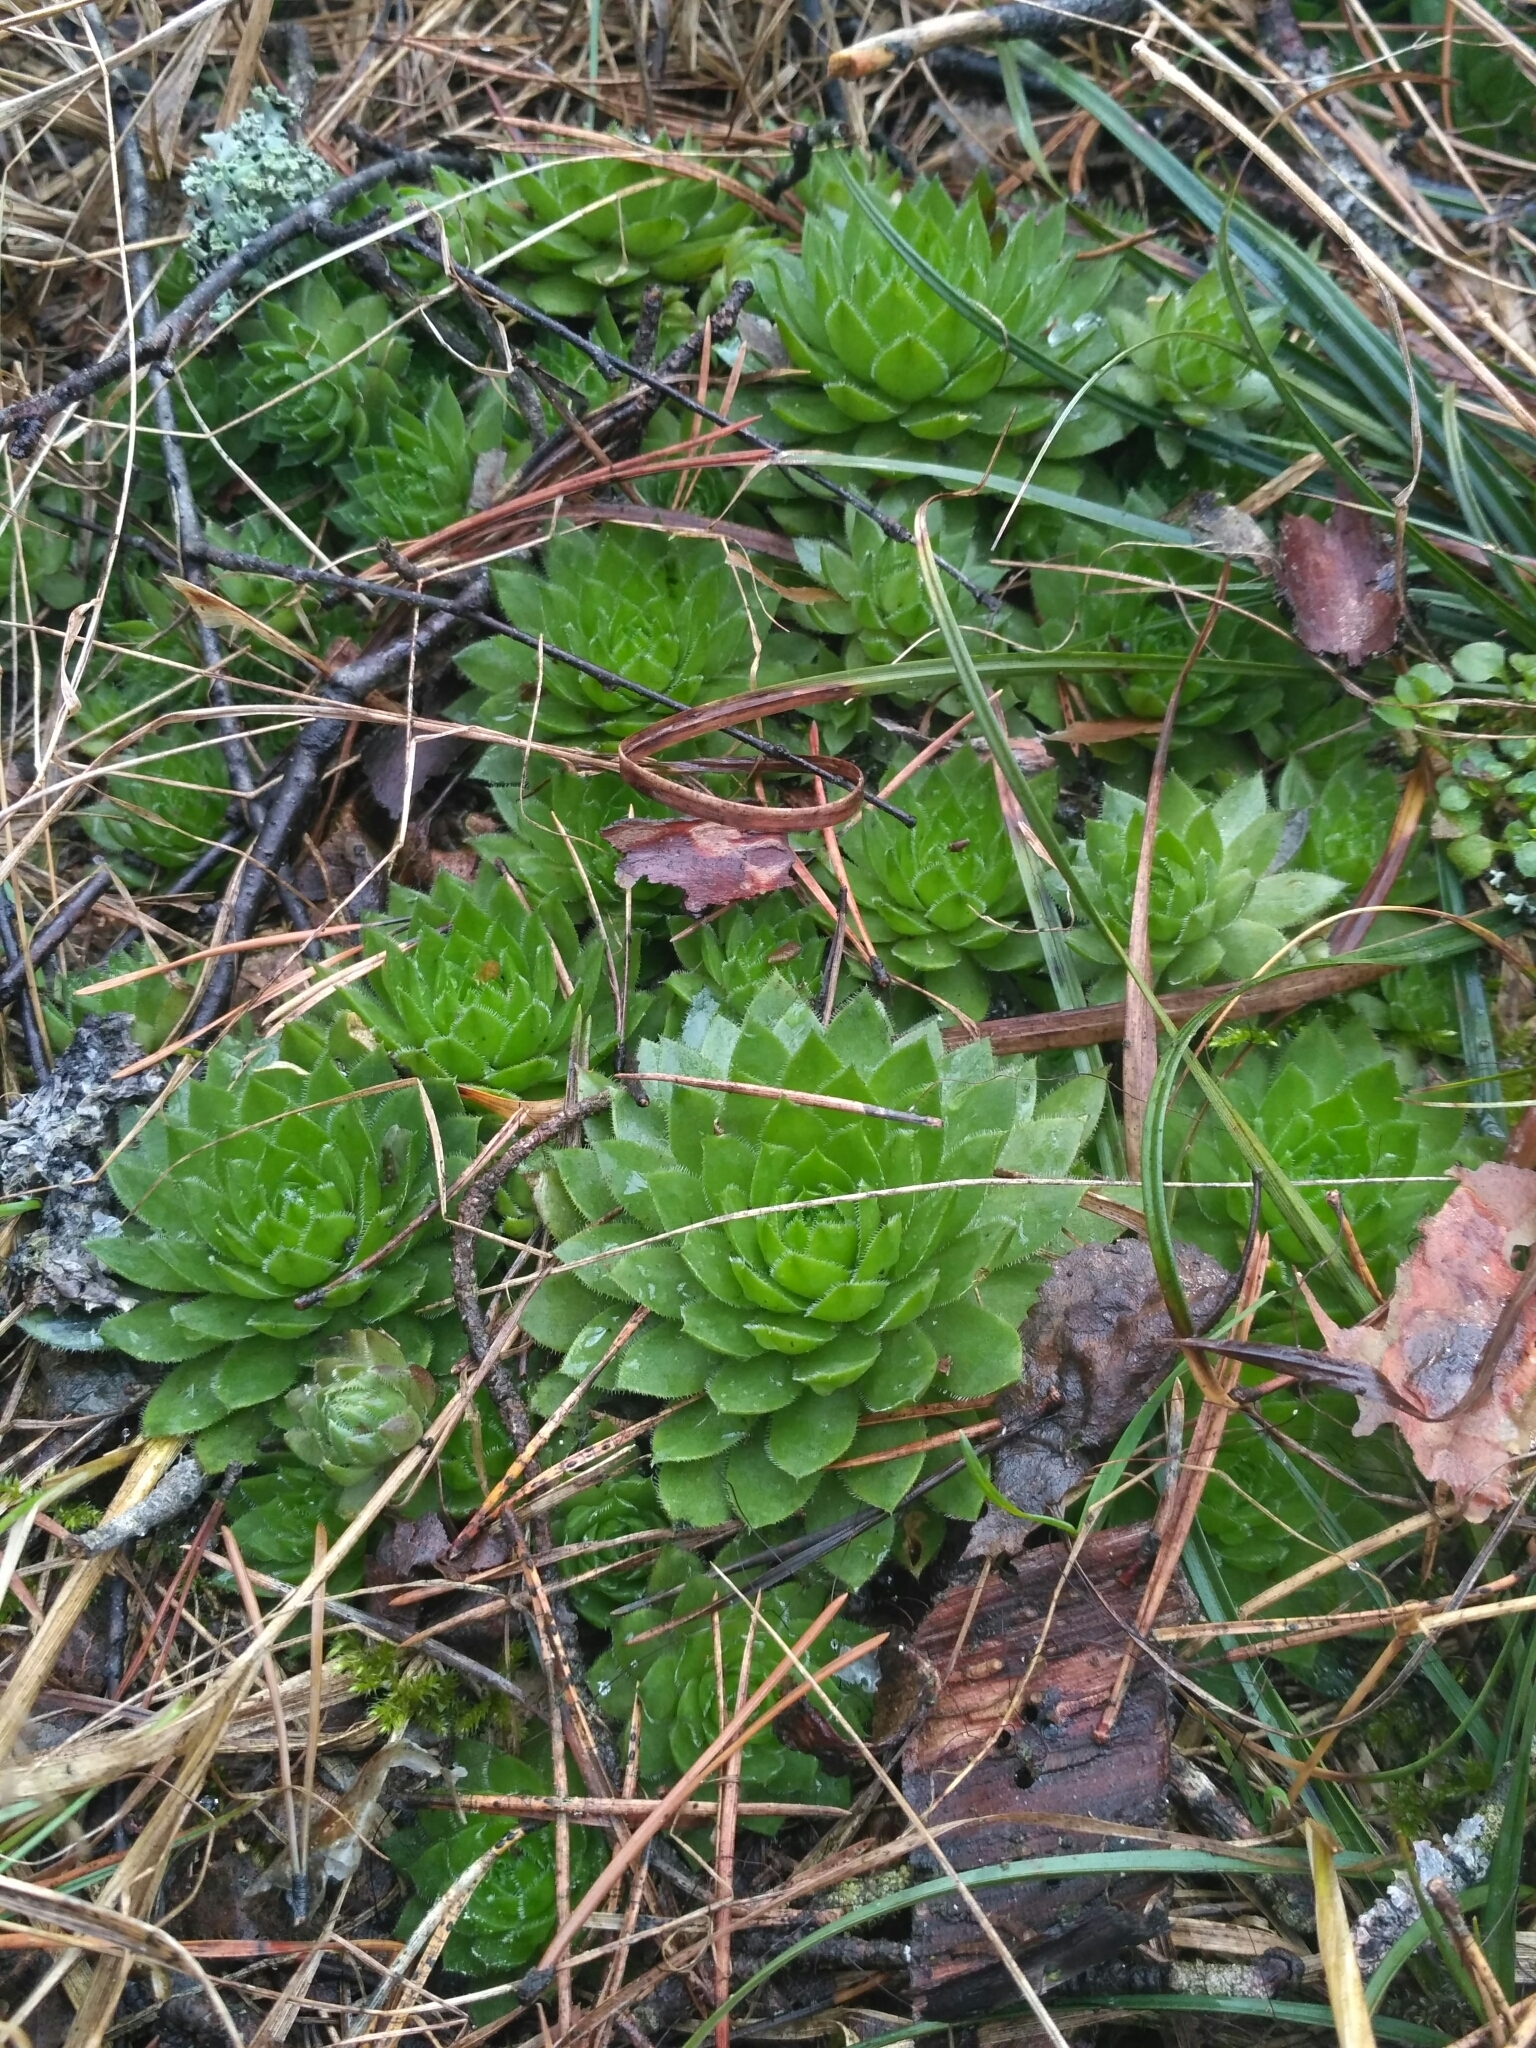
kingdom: Plantae
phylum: Tracheophyta
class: Magnoliopsida
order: Saxifragales
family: Crassulaceae
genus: Sempervivum
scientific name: Sempervivum globiferum
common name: Rolling hen-and-chicks
